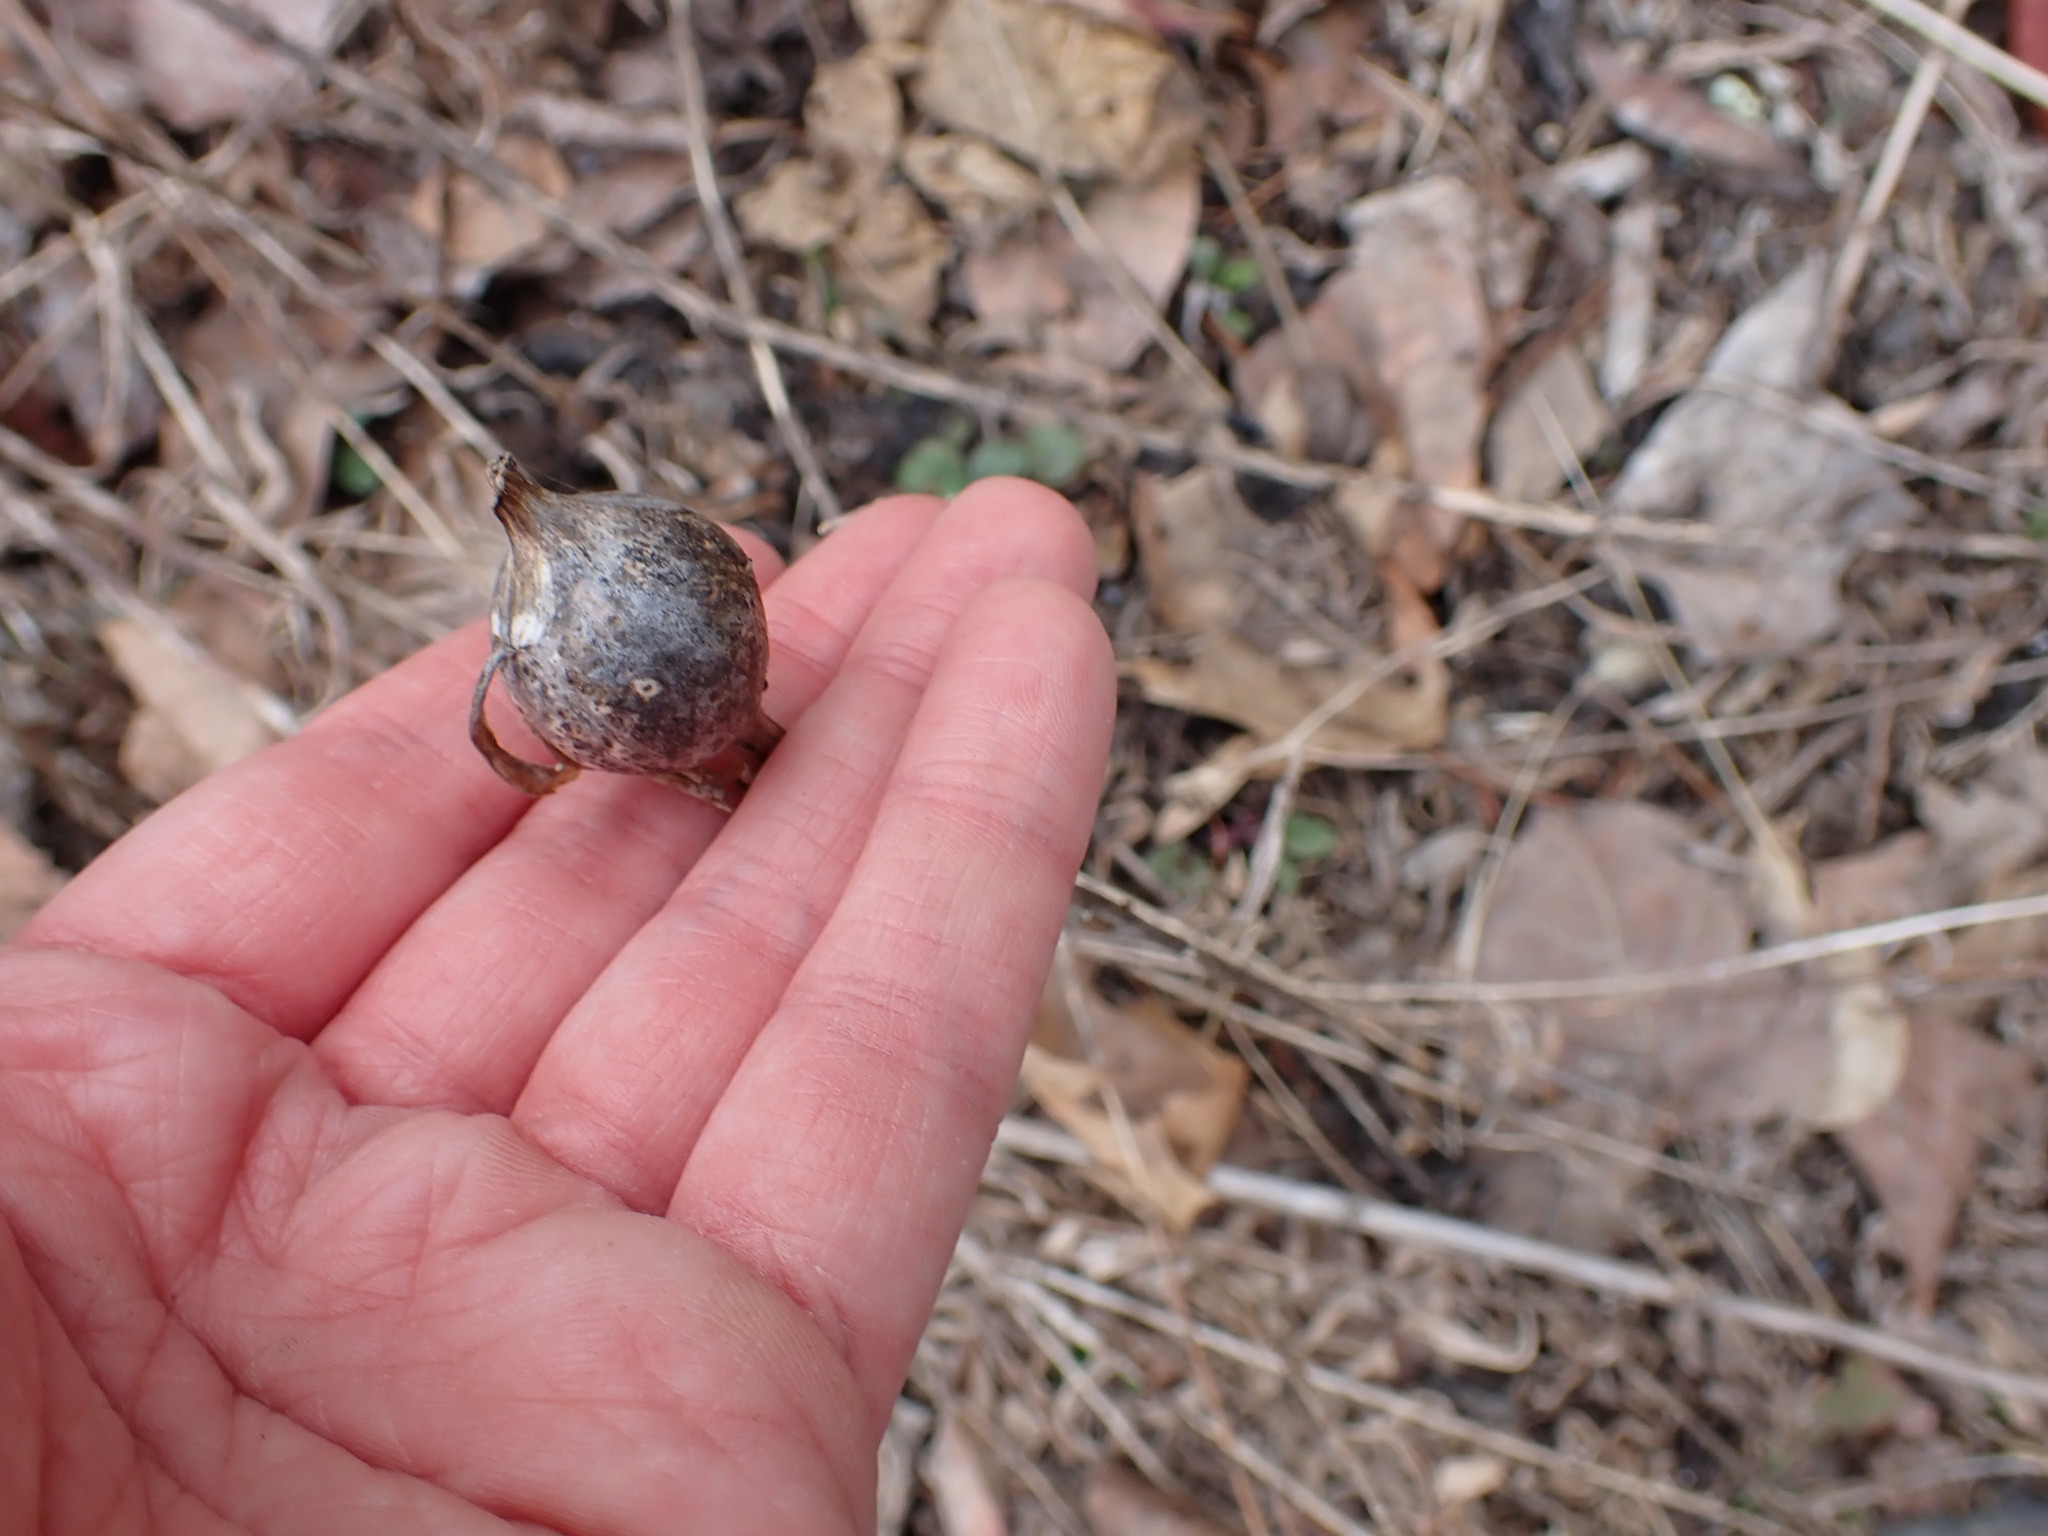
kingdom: Animalia
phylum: Arthropoda
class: Insecta
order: Diptera
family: Tephritidae
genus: Eurosta
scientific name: Eurosta solidaginis
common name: Goldenrod gall fly
